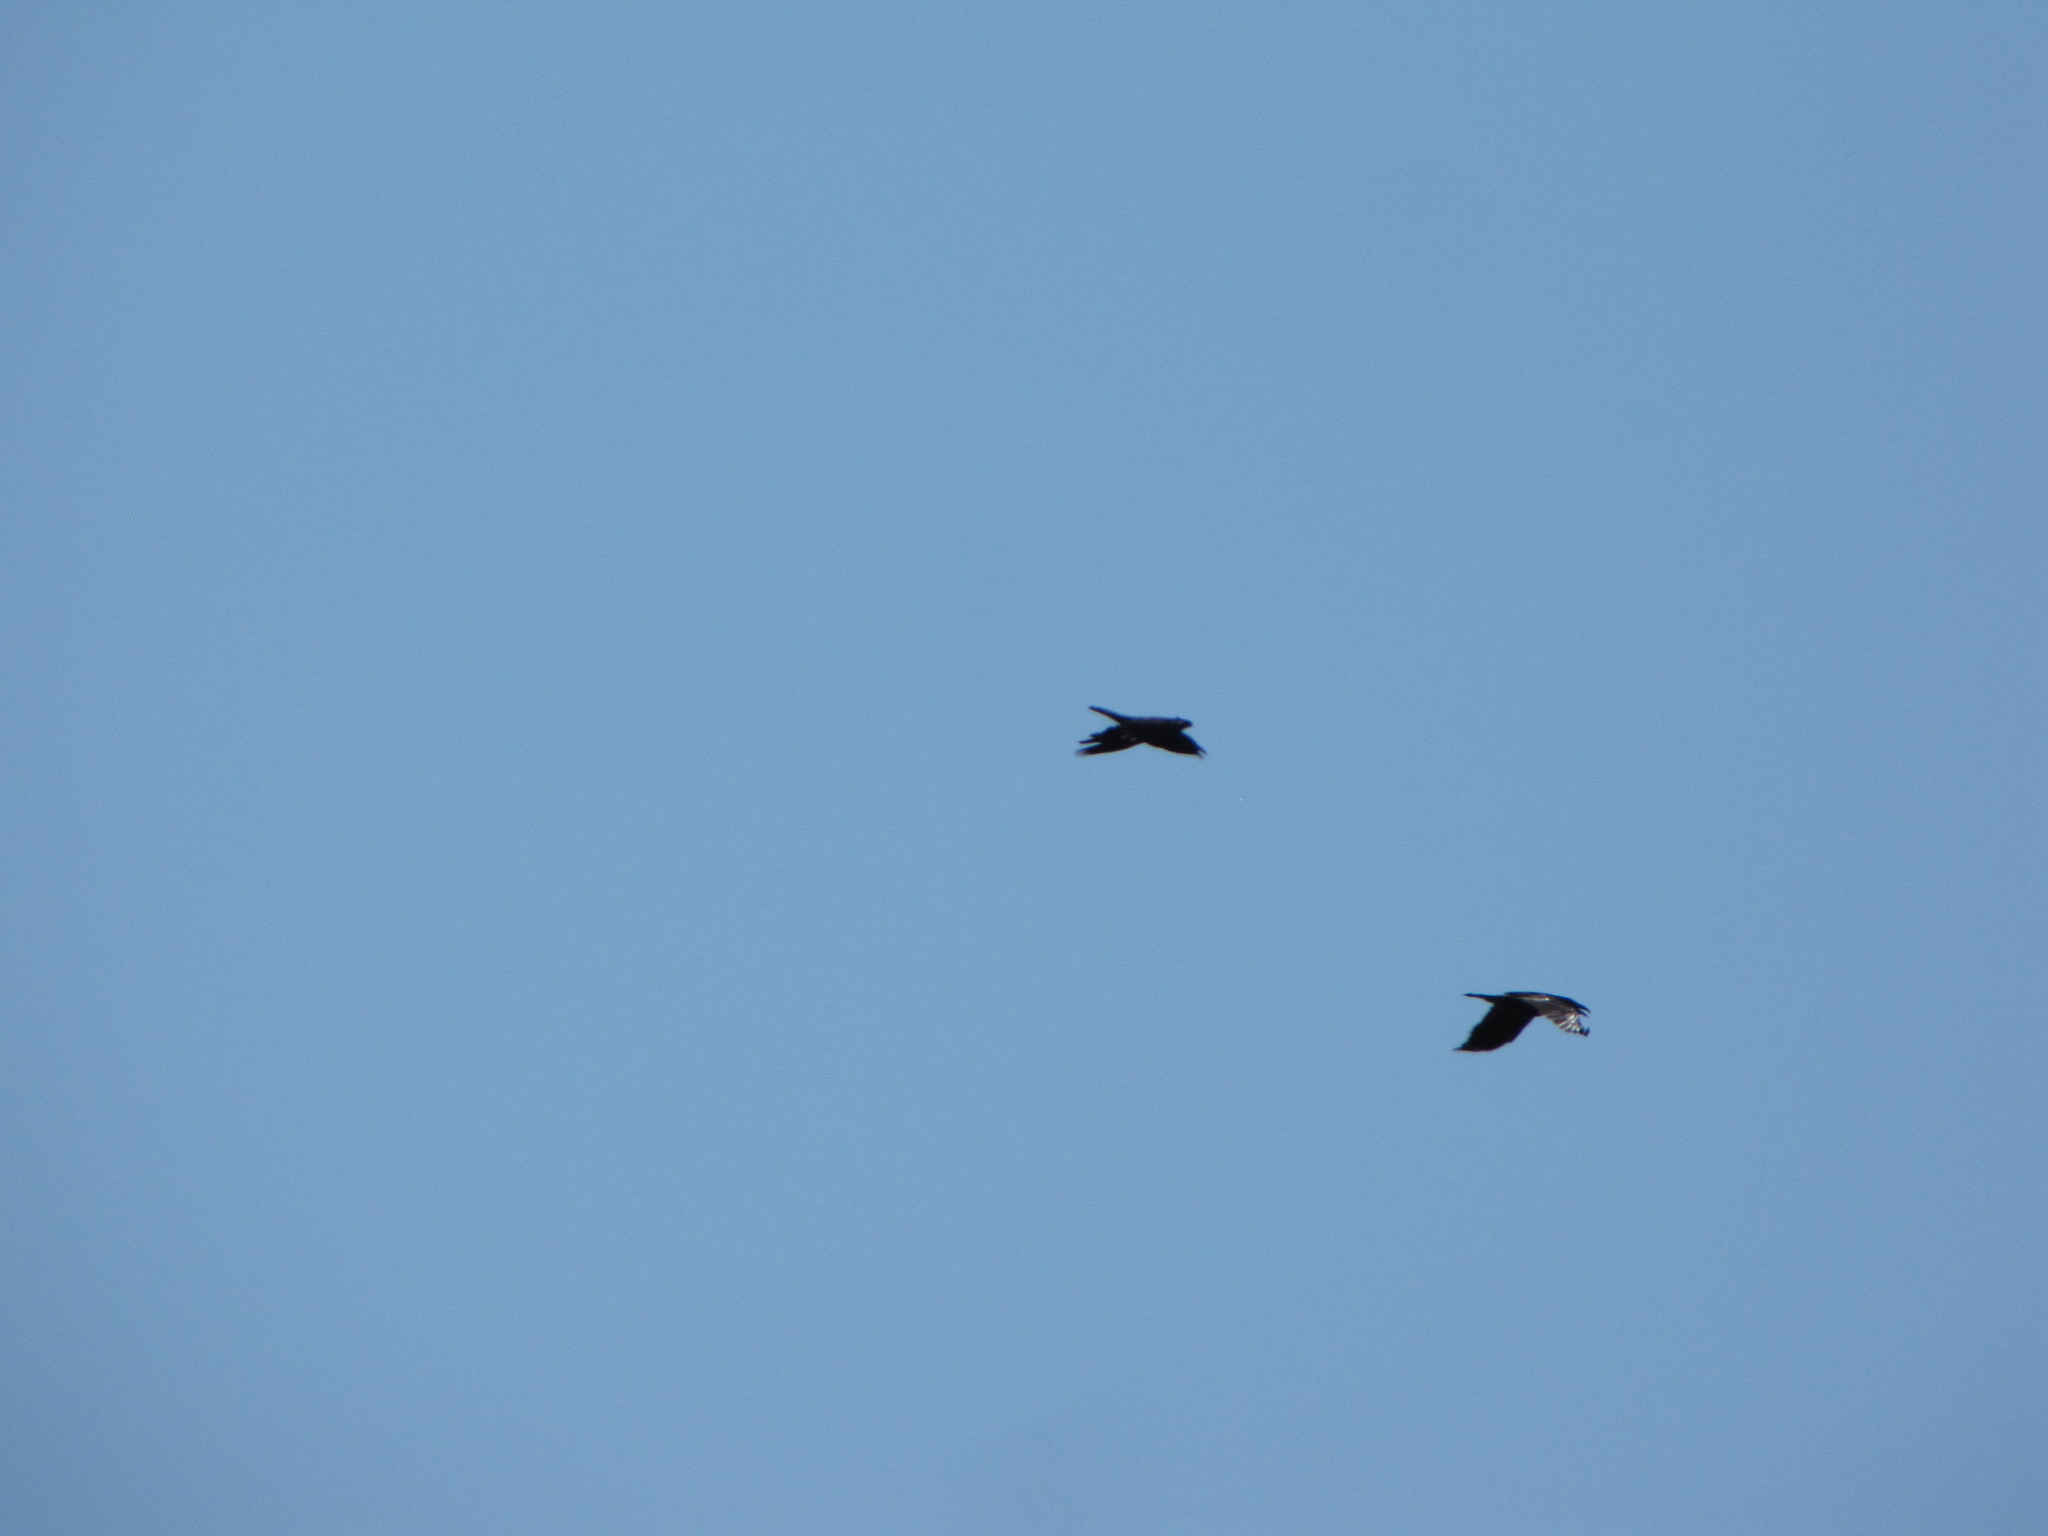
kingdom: Animalia
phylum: Chordata
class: Aves
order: Passeriformes
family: Corvidae
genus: Corvus
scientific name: Corvus corax
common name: Common raven
